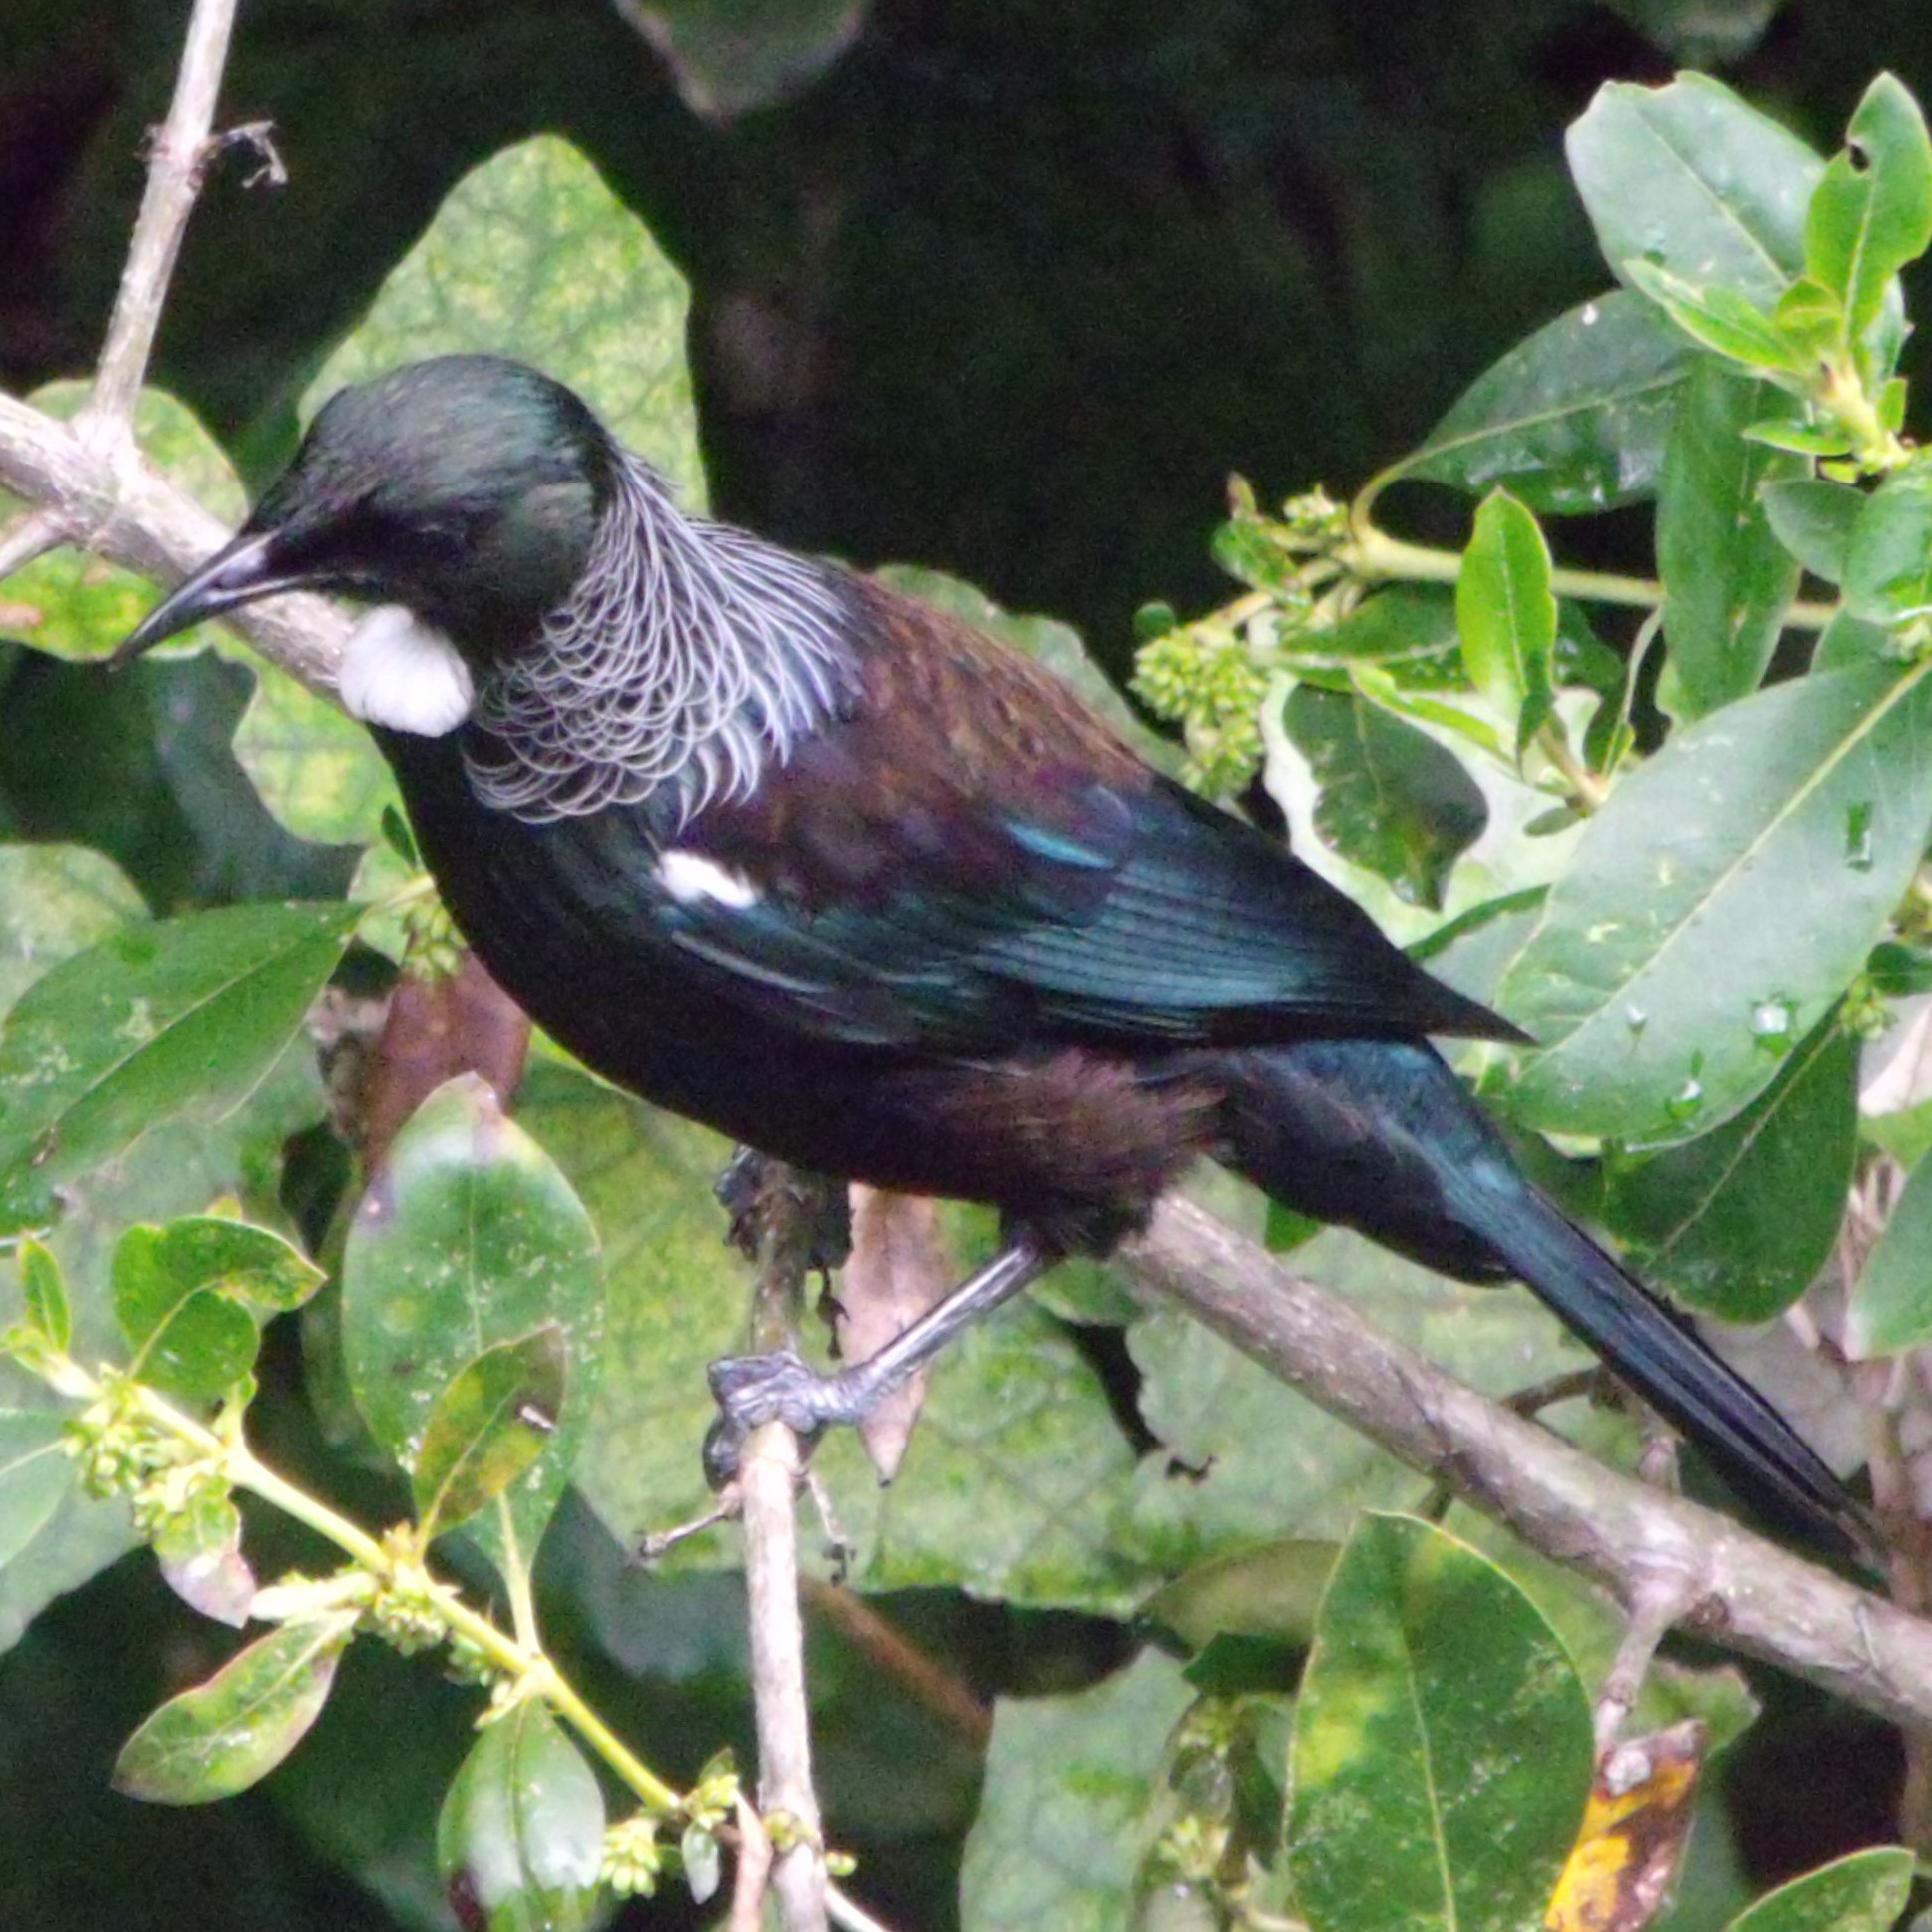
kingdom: Animalia
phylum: Chordata
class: Aves
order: Passeriformes
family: Meliphagidae
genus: Prosthemadera
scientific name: Prosthemadera novaeseelandiae
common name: Tui
